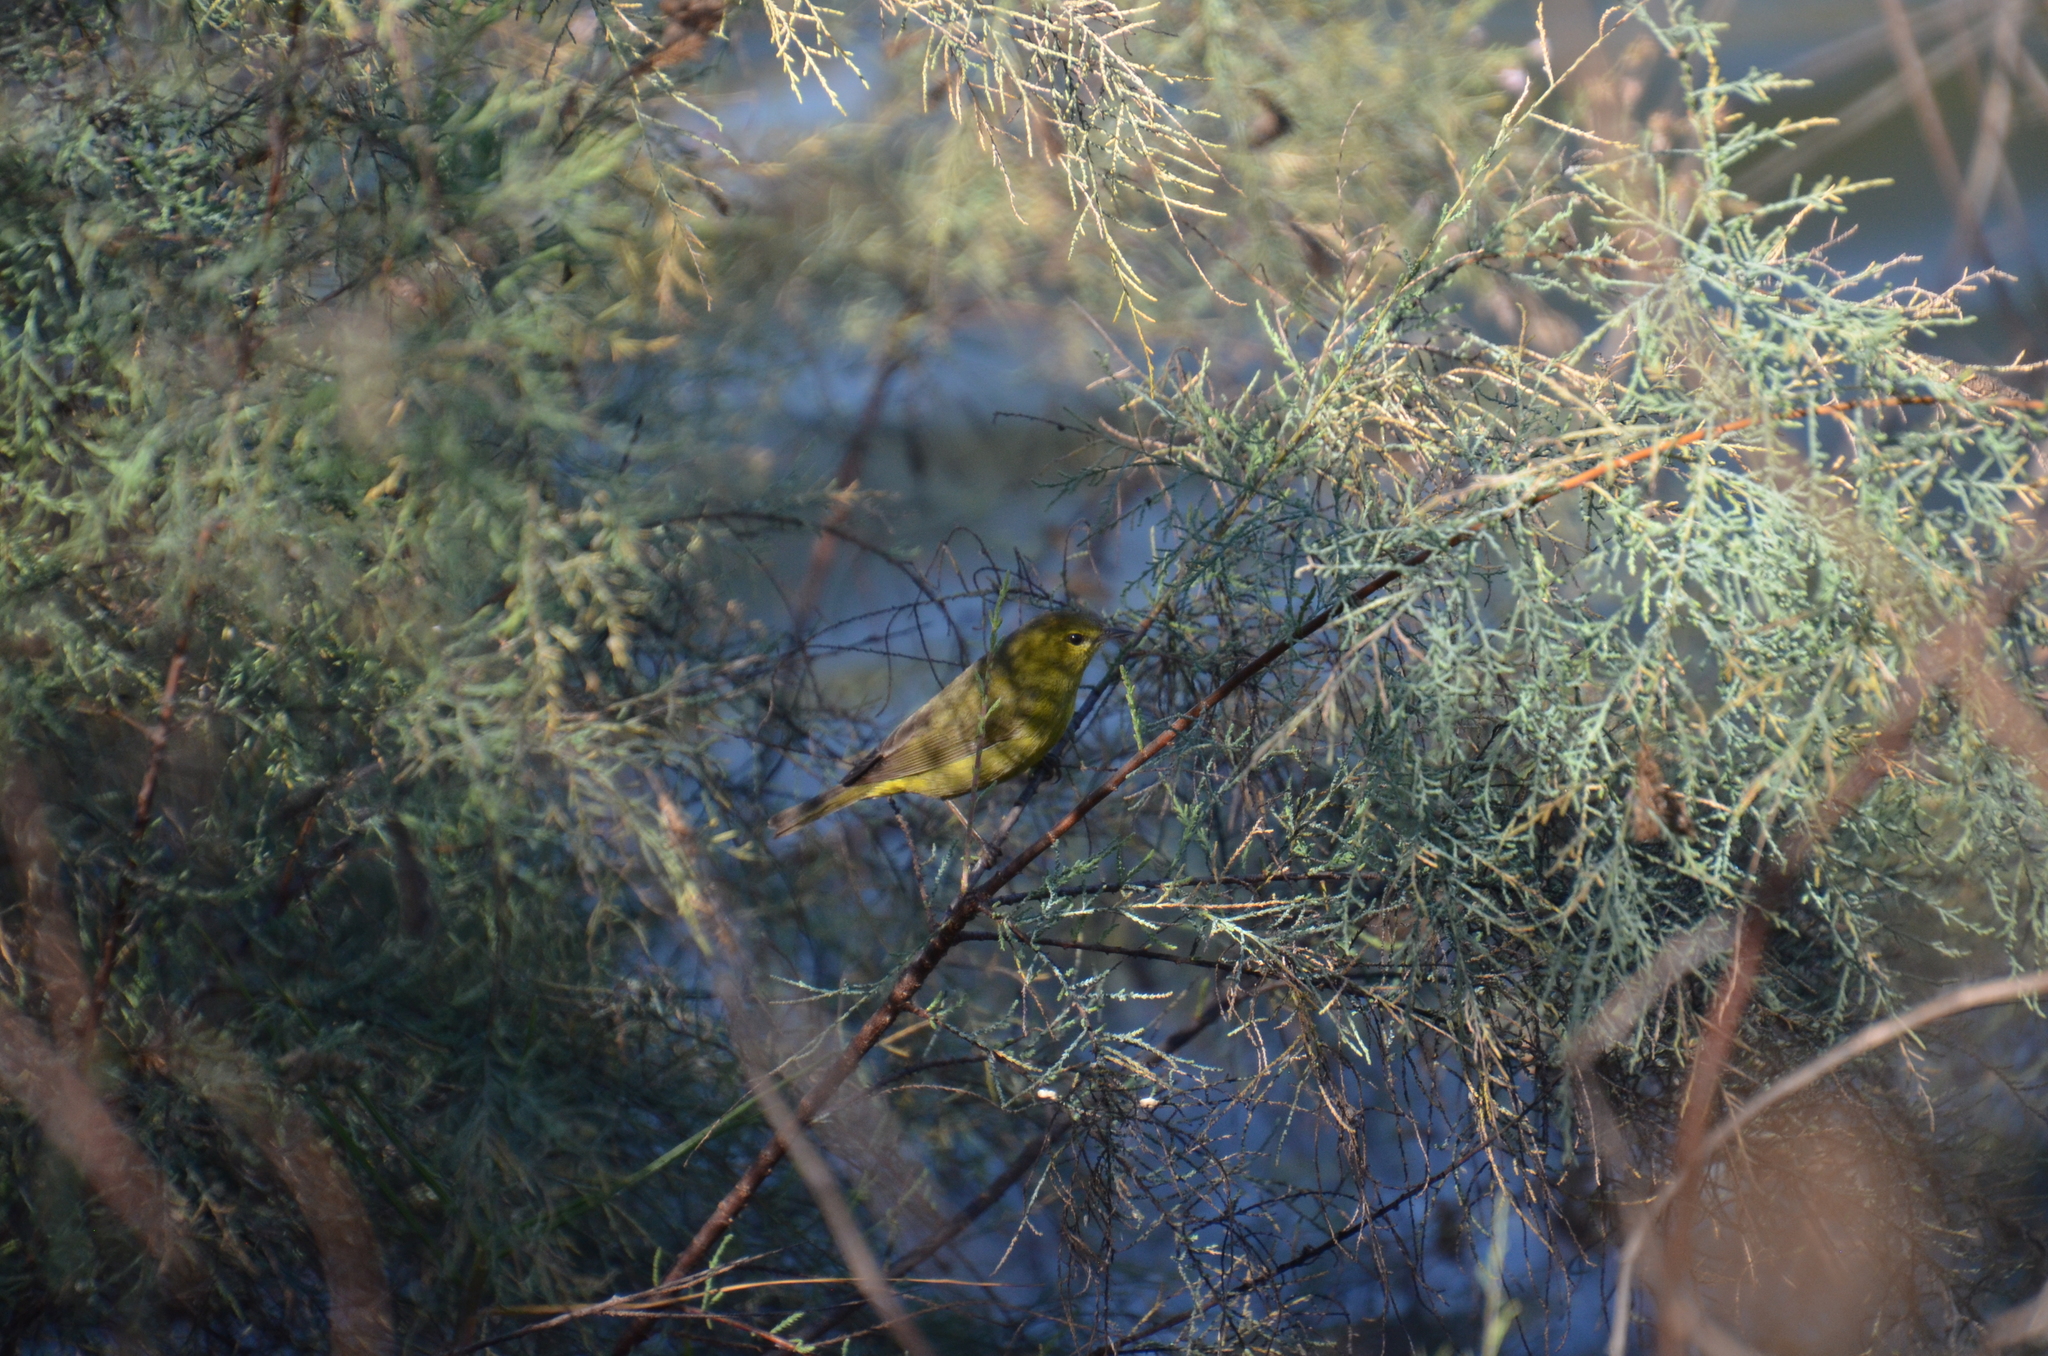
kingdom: Animalia
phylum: Chordata
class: Aves
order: Passeriformes
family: Parulidae
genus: Leiothlypis
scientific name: Leiothlypis celata
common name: Orange-crowned warbler
